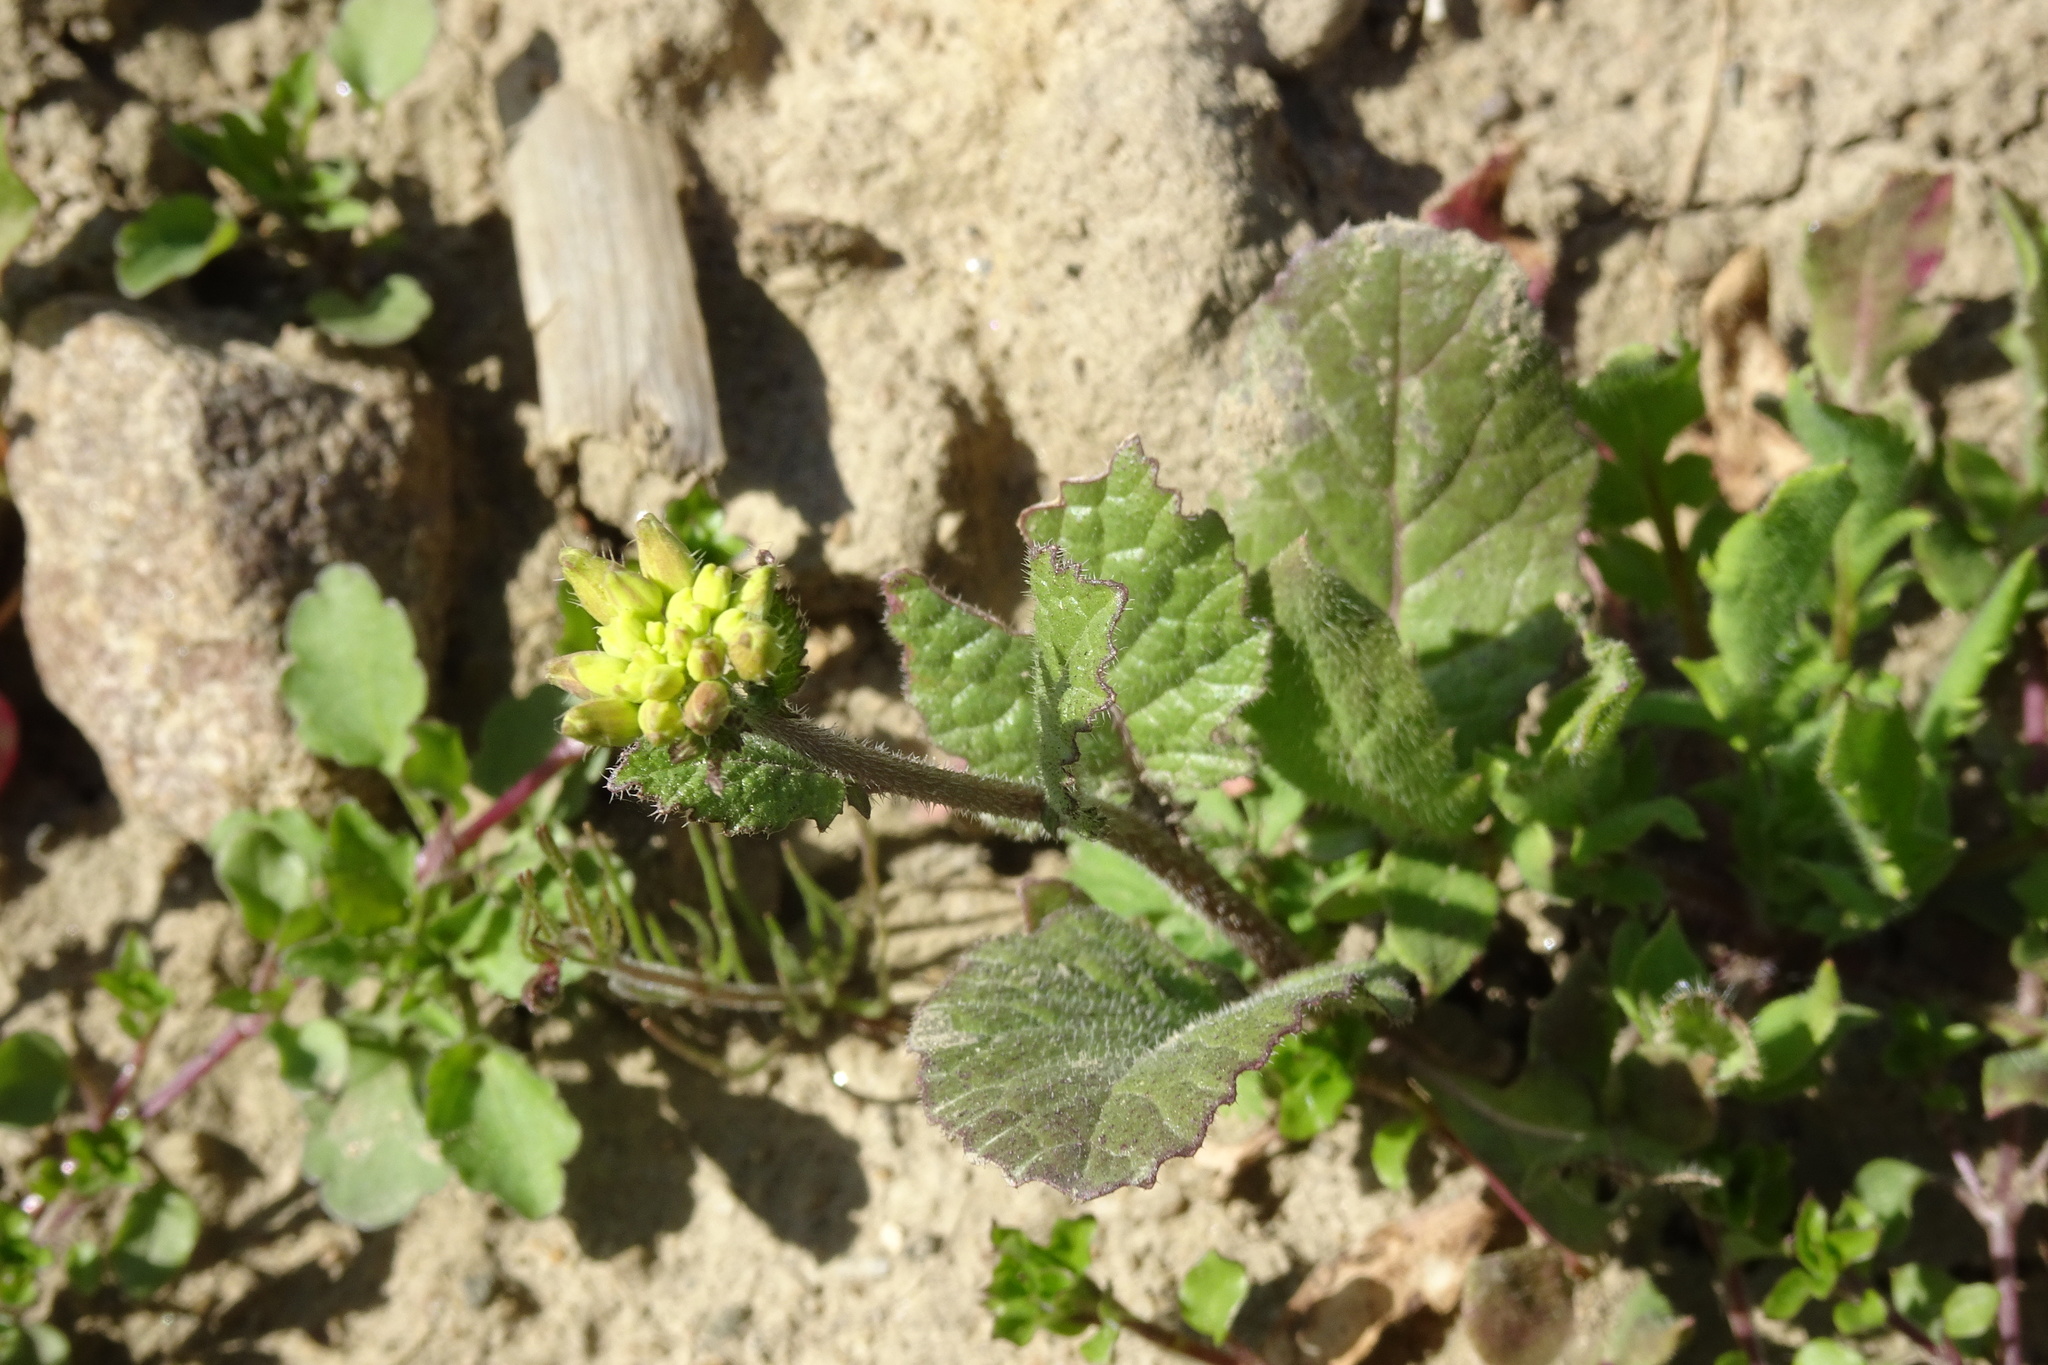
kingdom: Plantae
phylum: Tracheophyta
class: Magnoliopsida
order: Brassicales
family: Brassicaceae
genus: Sinapis
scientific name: Sinapis arvensis
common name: Charlock
